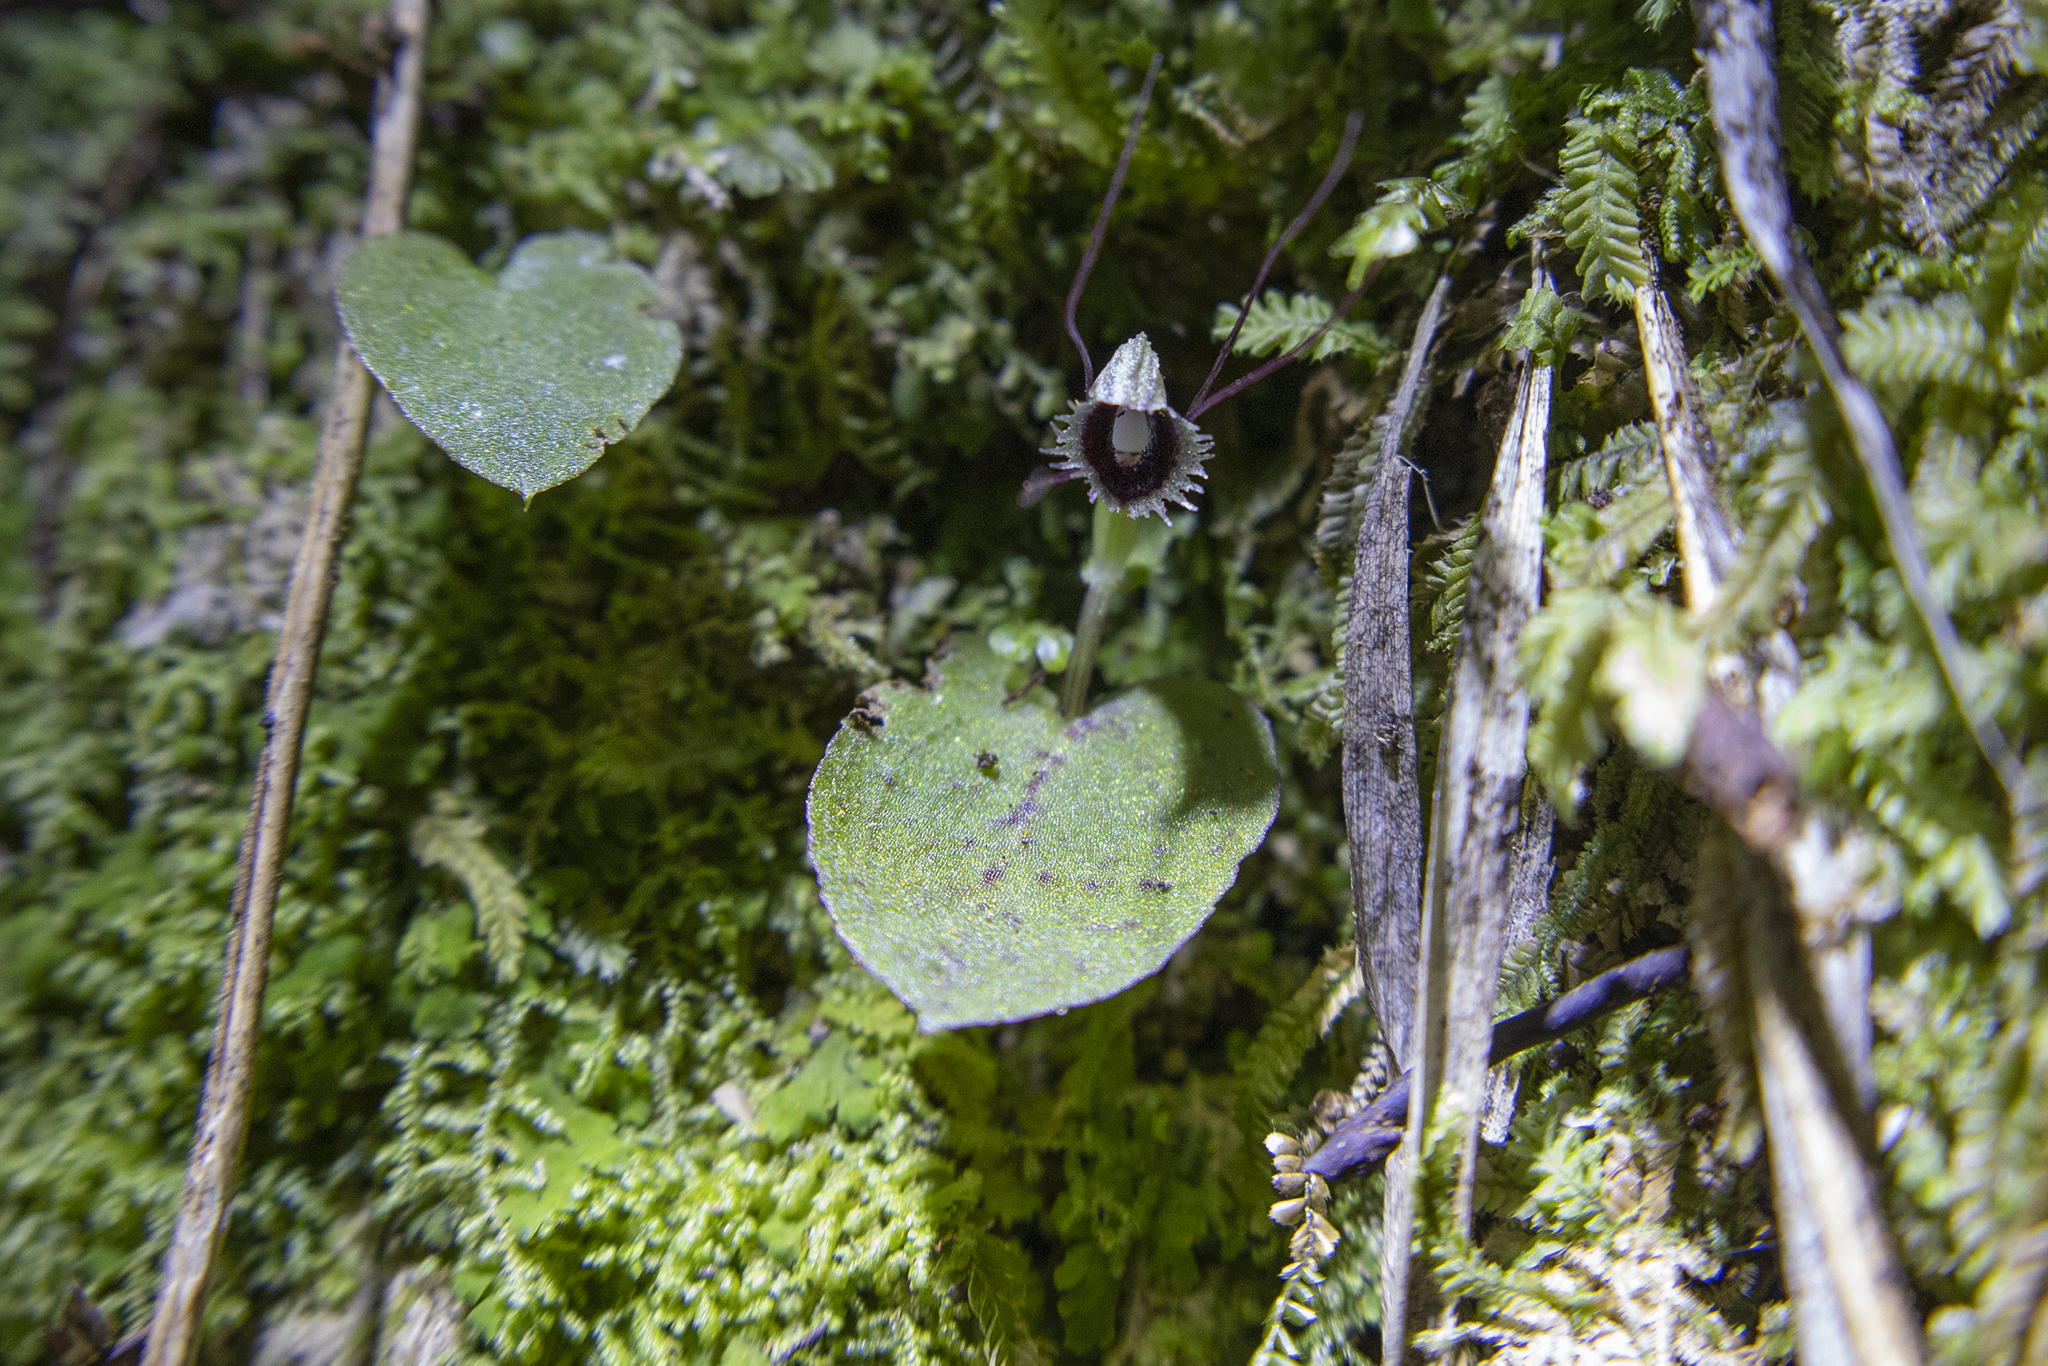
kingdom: Plantae
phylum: Tracheophyta
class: Liliopsida
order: Asparagales
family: Orchidaceae
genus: Corybas
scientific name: Corybas oblongus
